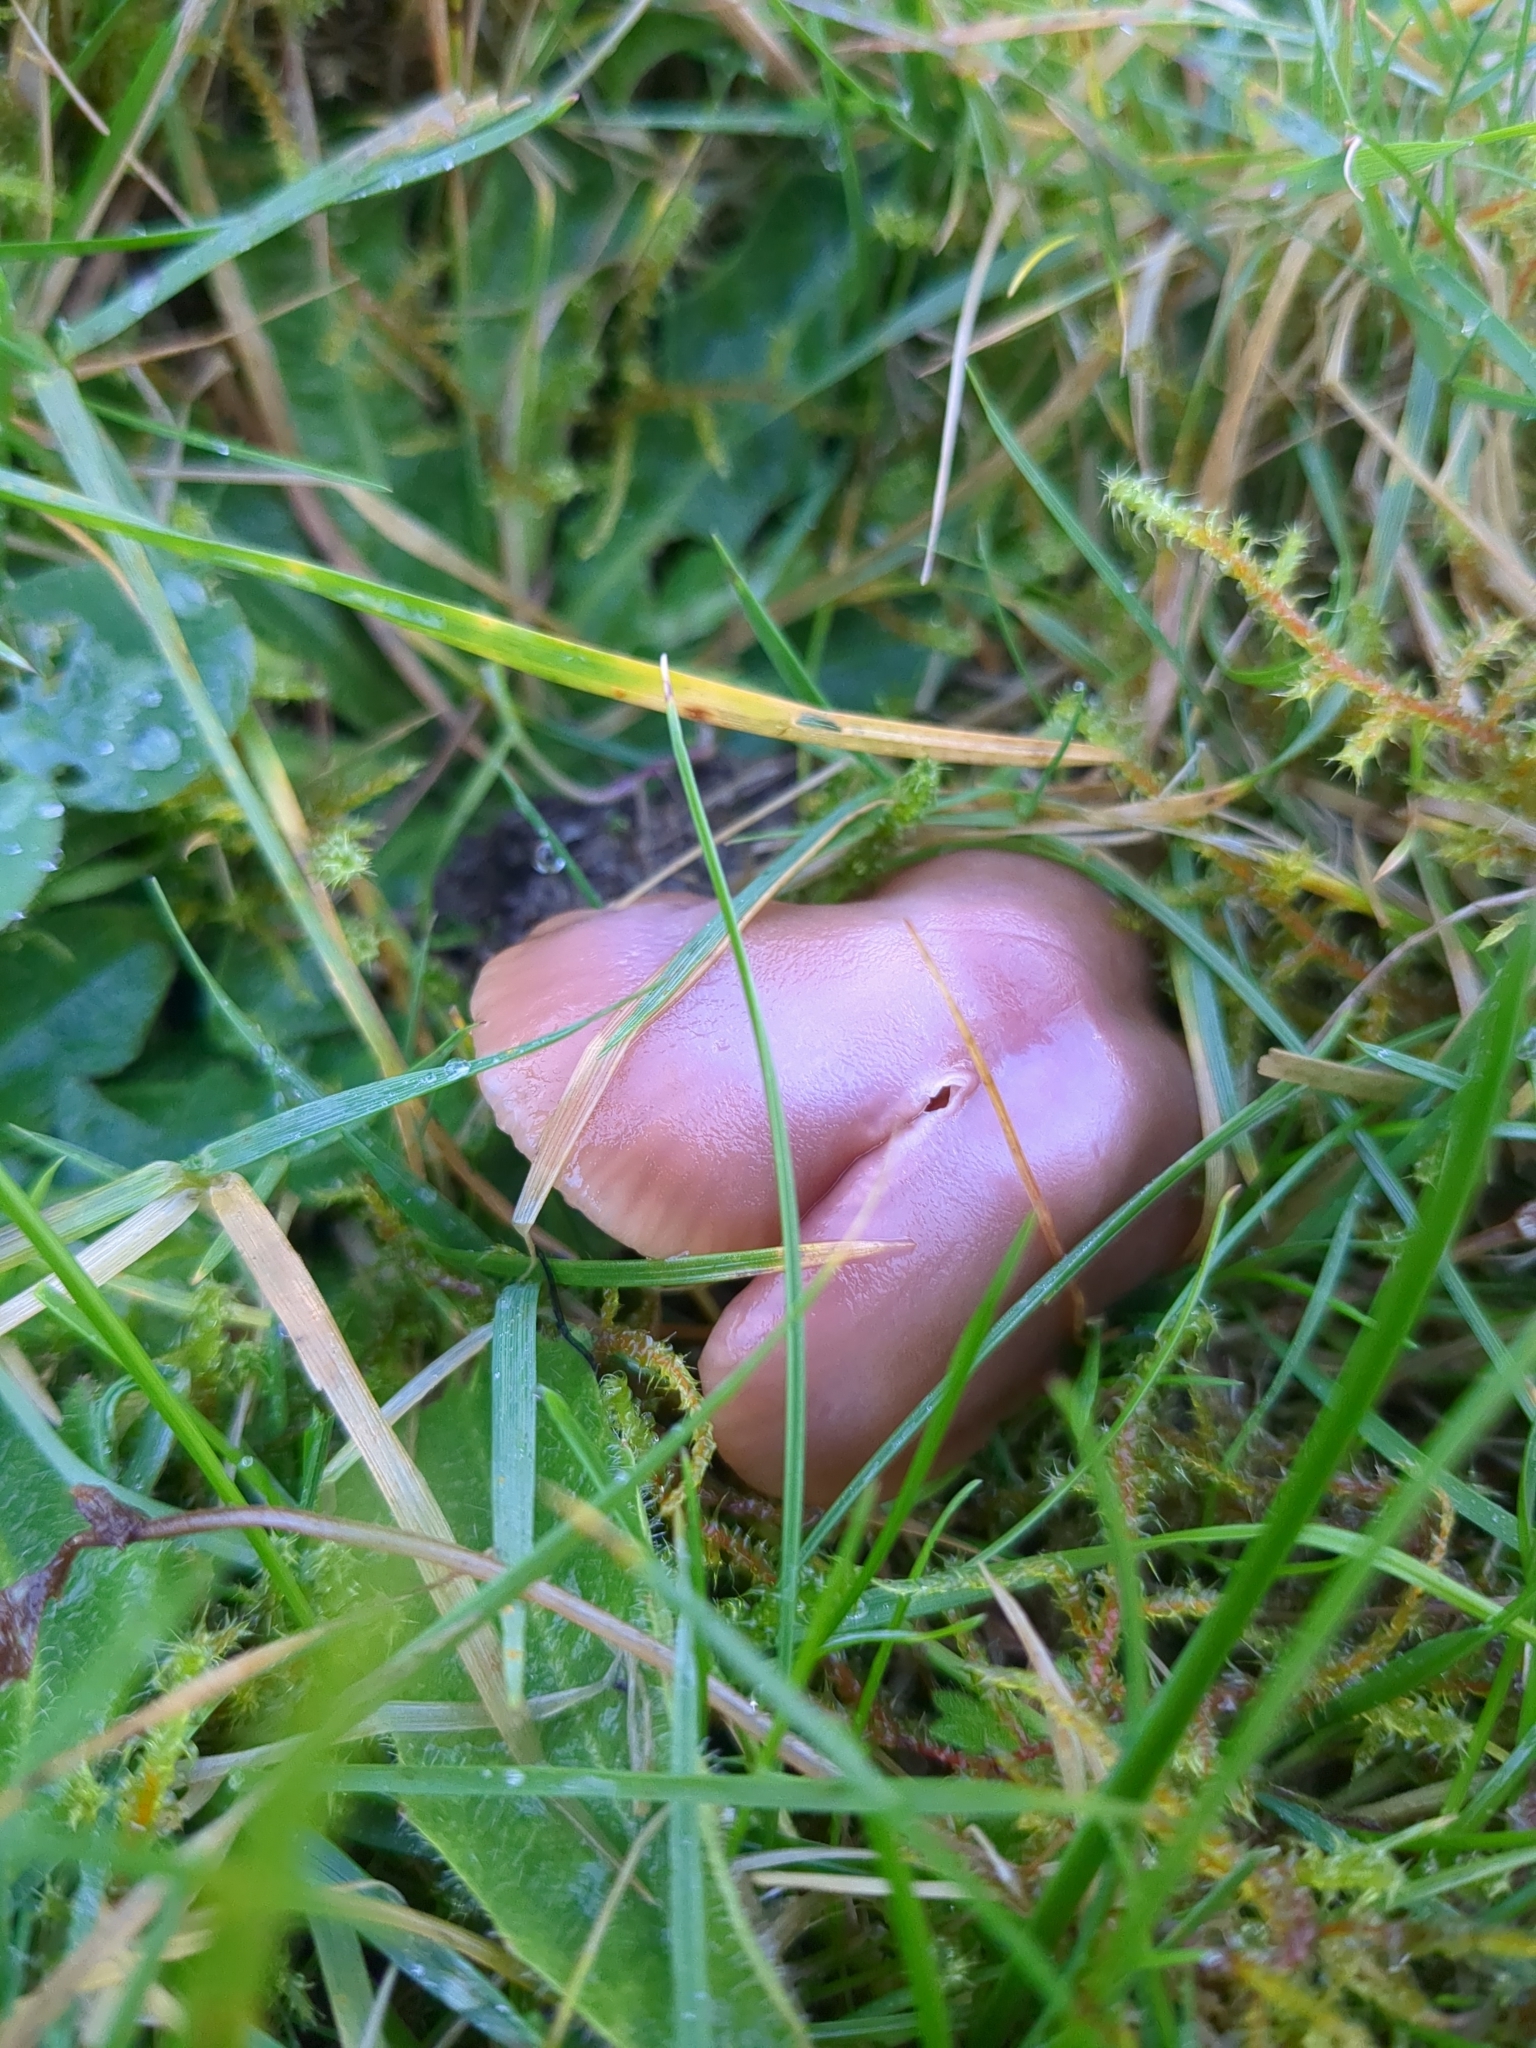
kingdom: Fungi
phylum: Basidiomycota
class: Agaricomycetes
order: Agaricales
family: Hygrophoraceae
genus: Gliophorus
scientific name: Gliophorus reginae
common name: Jubilee waxcap
